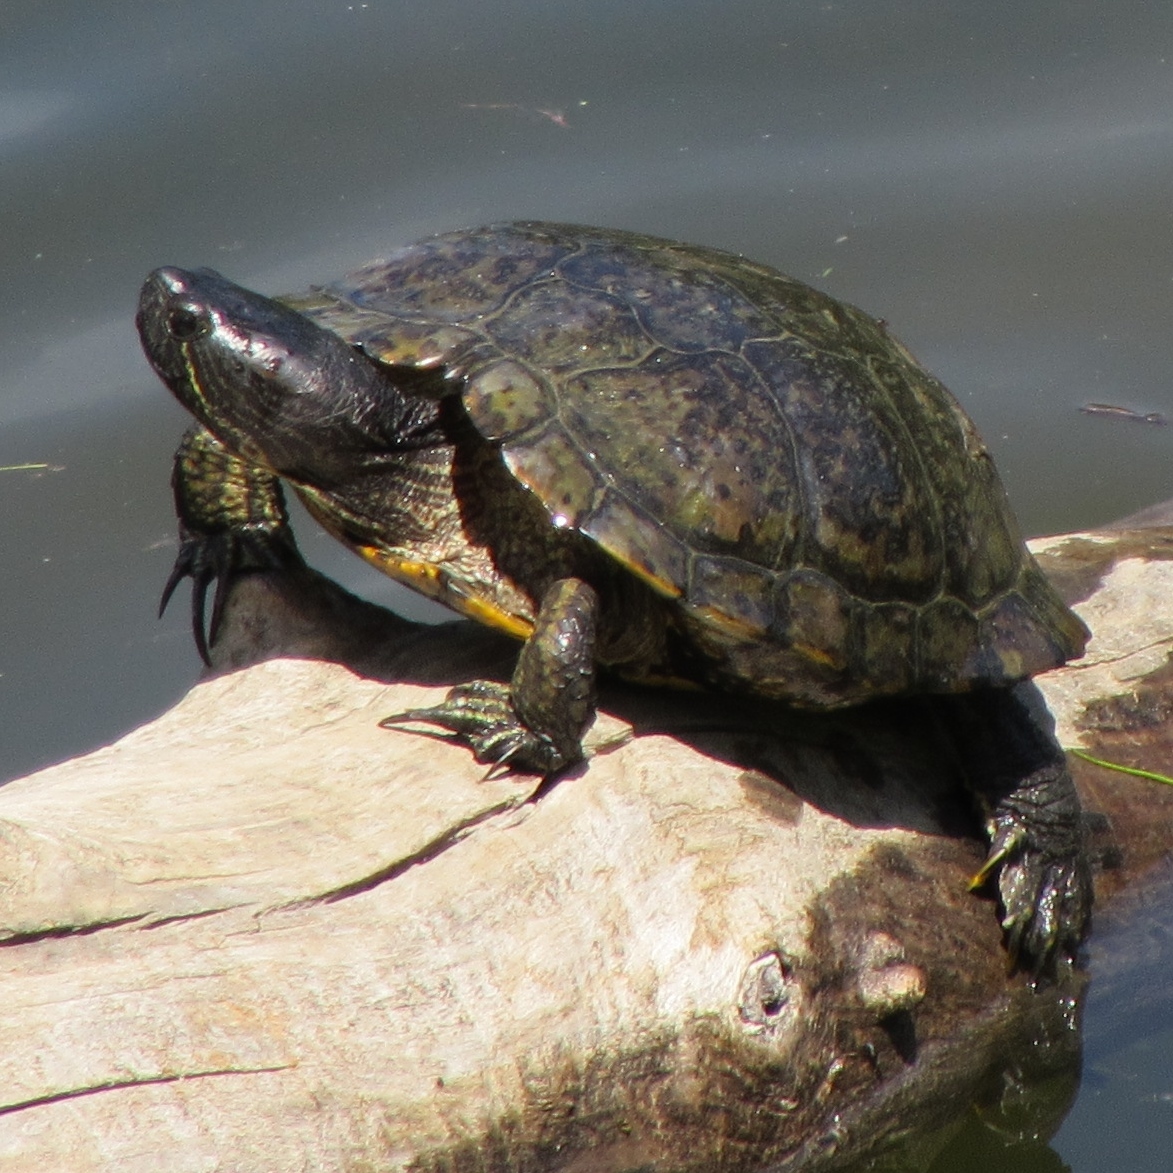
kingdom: Animalia
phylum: Chordata
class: Testudines
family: Emydidae
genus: Trachemys
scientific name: Trachemys scripta
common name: Slider
